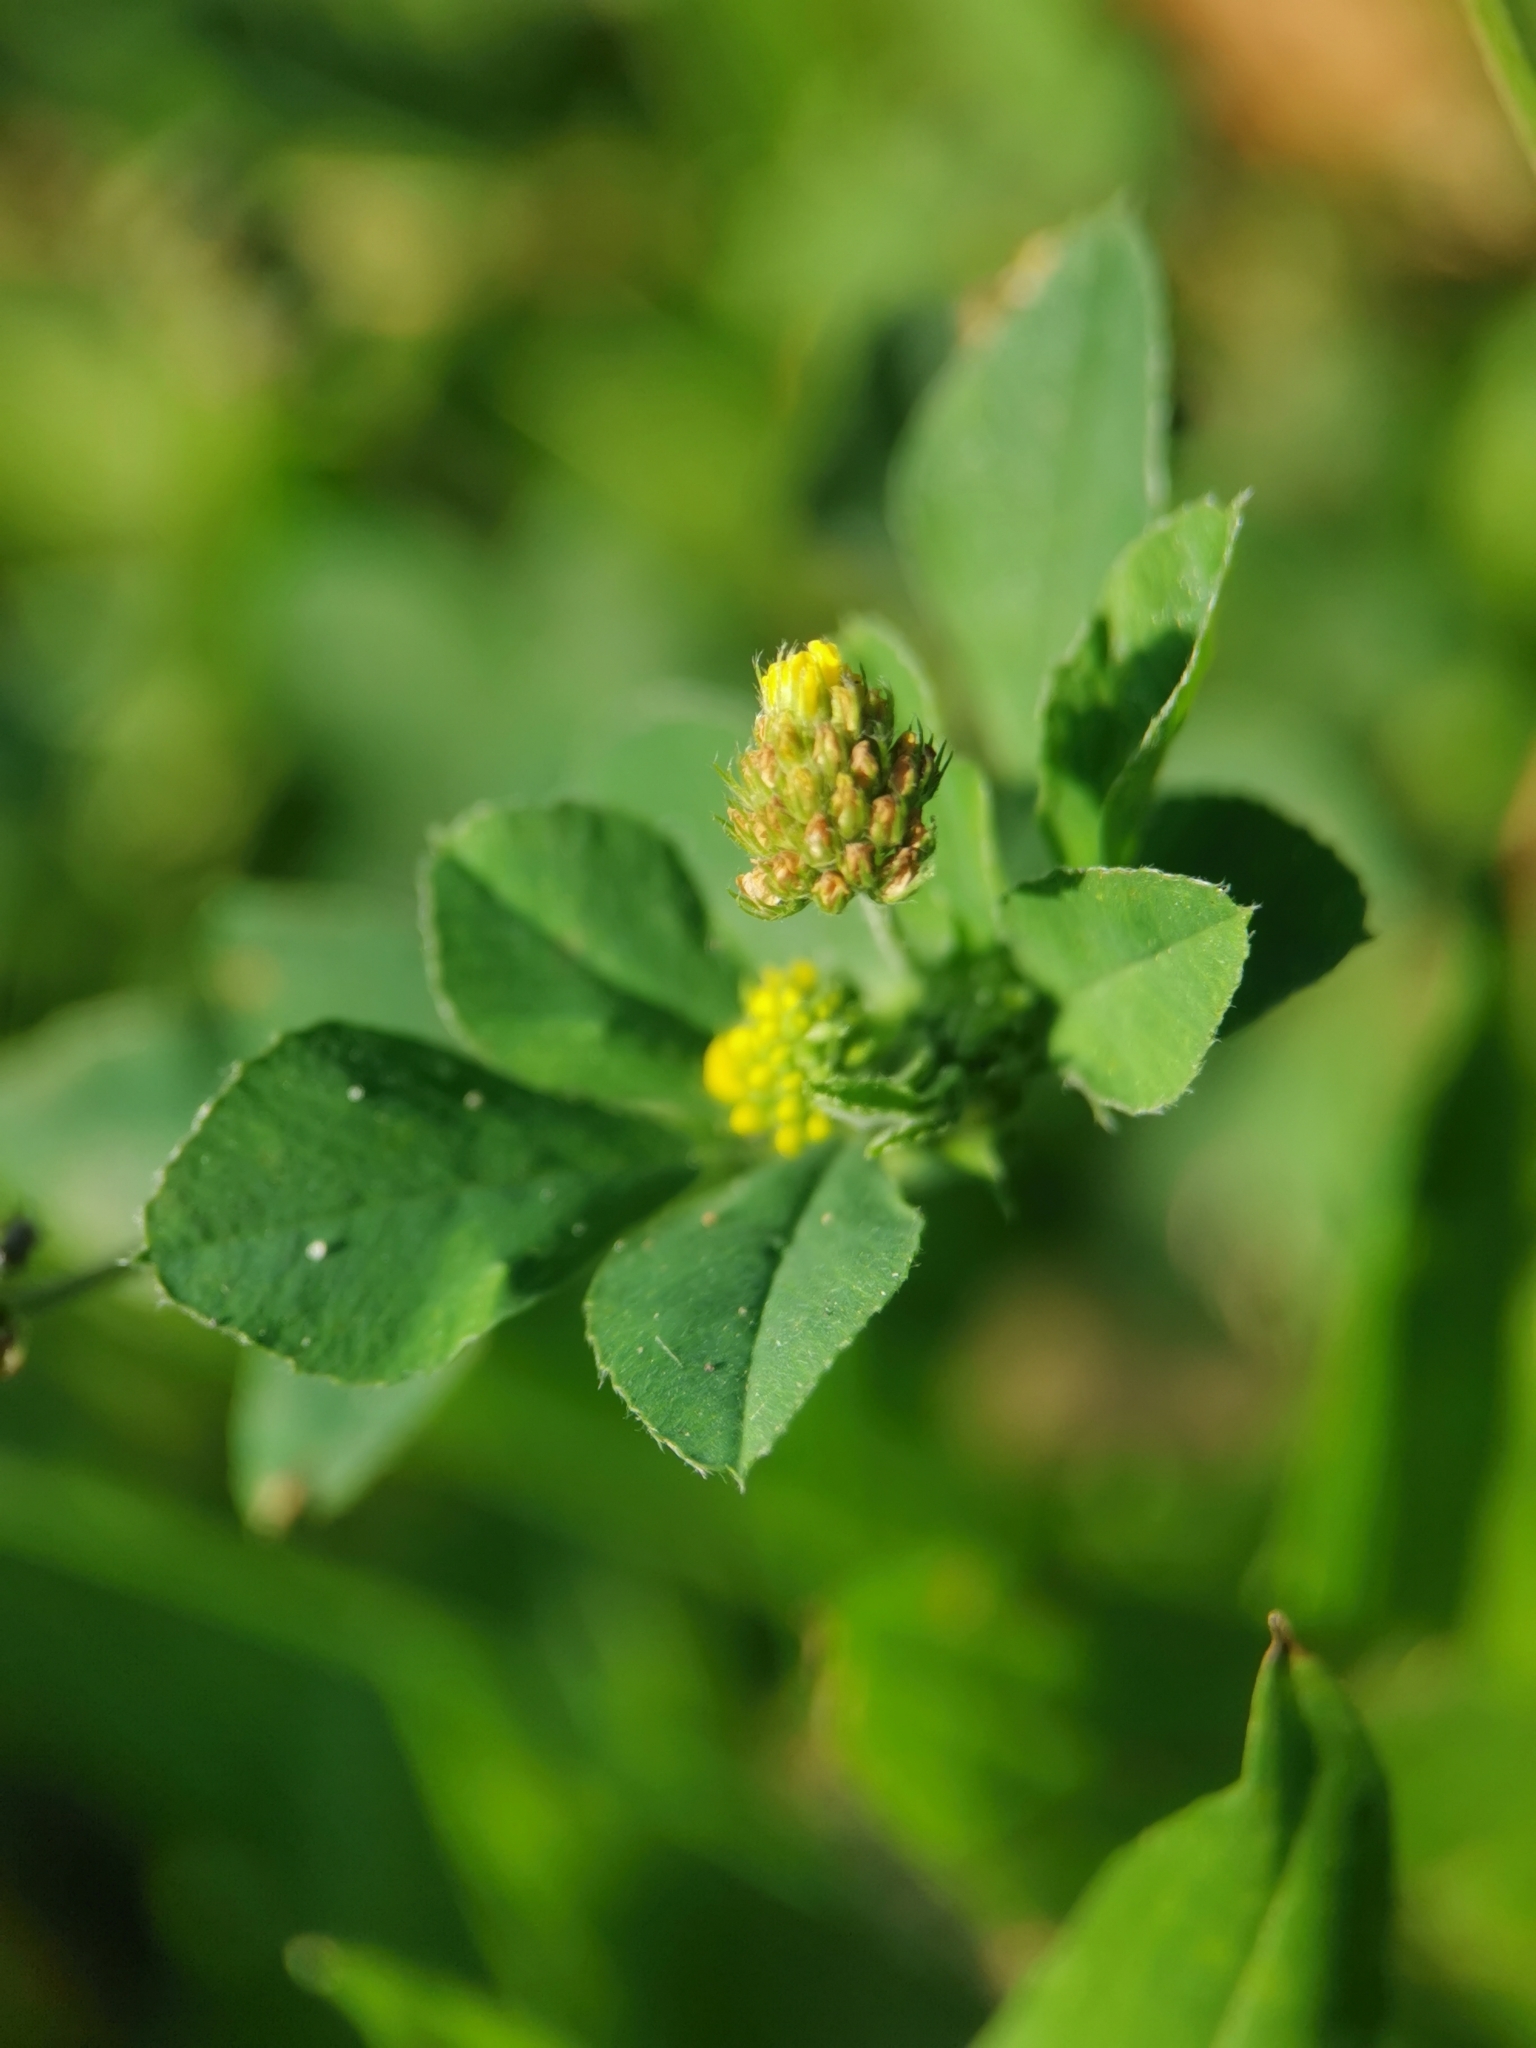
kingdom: Plantae
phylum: Tracheophyta
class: Magnoliopsida
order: Fabales
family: Fabaceae
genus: Medicago
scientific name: Medicago lupulina
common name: Black medick
